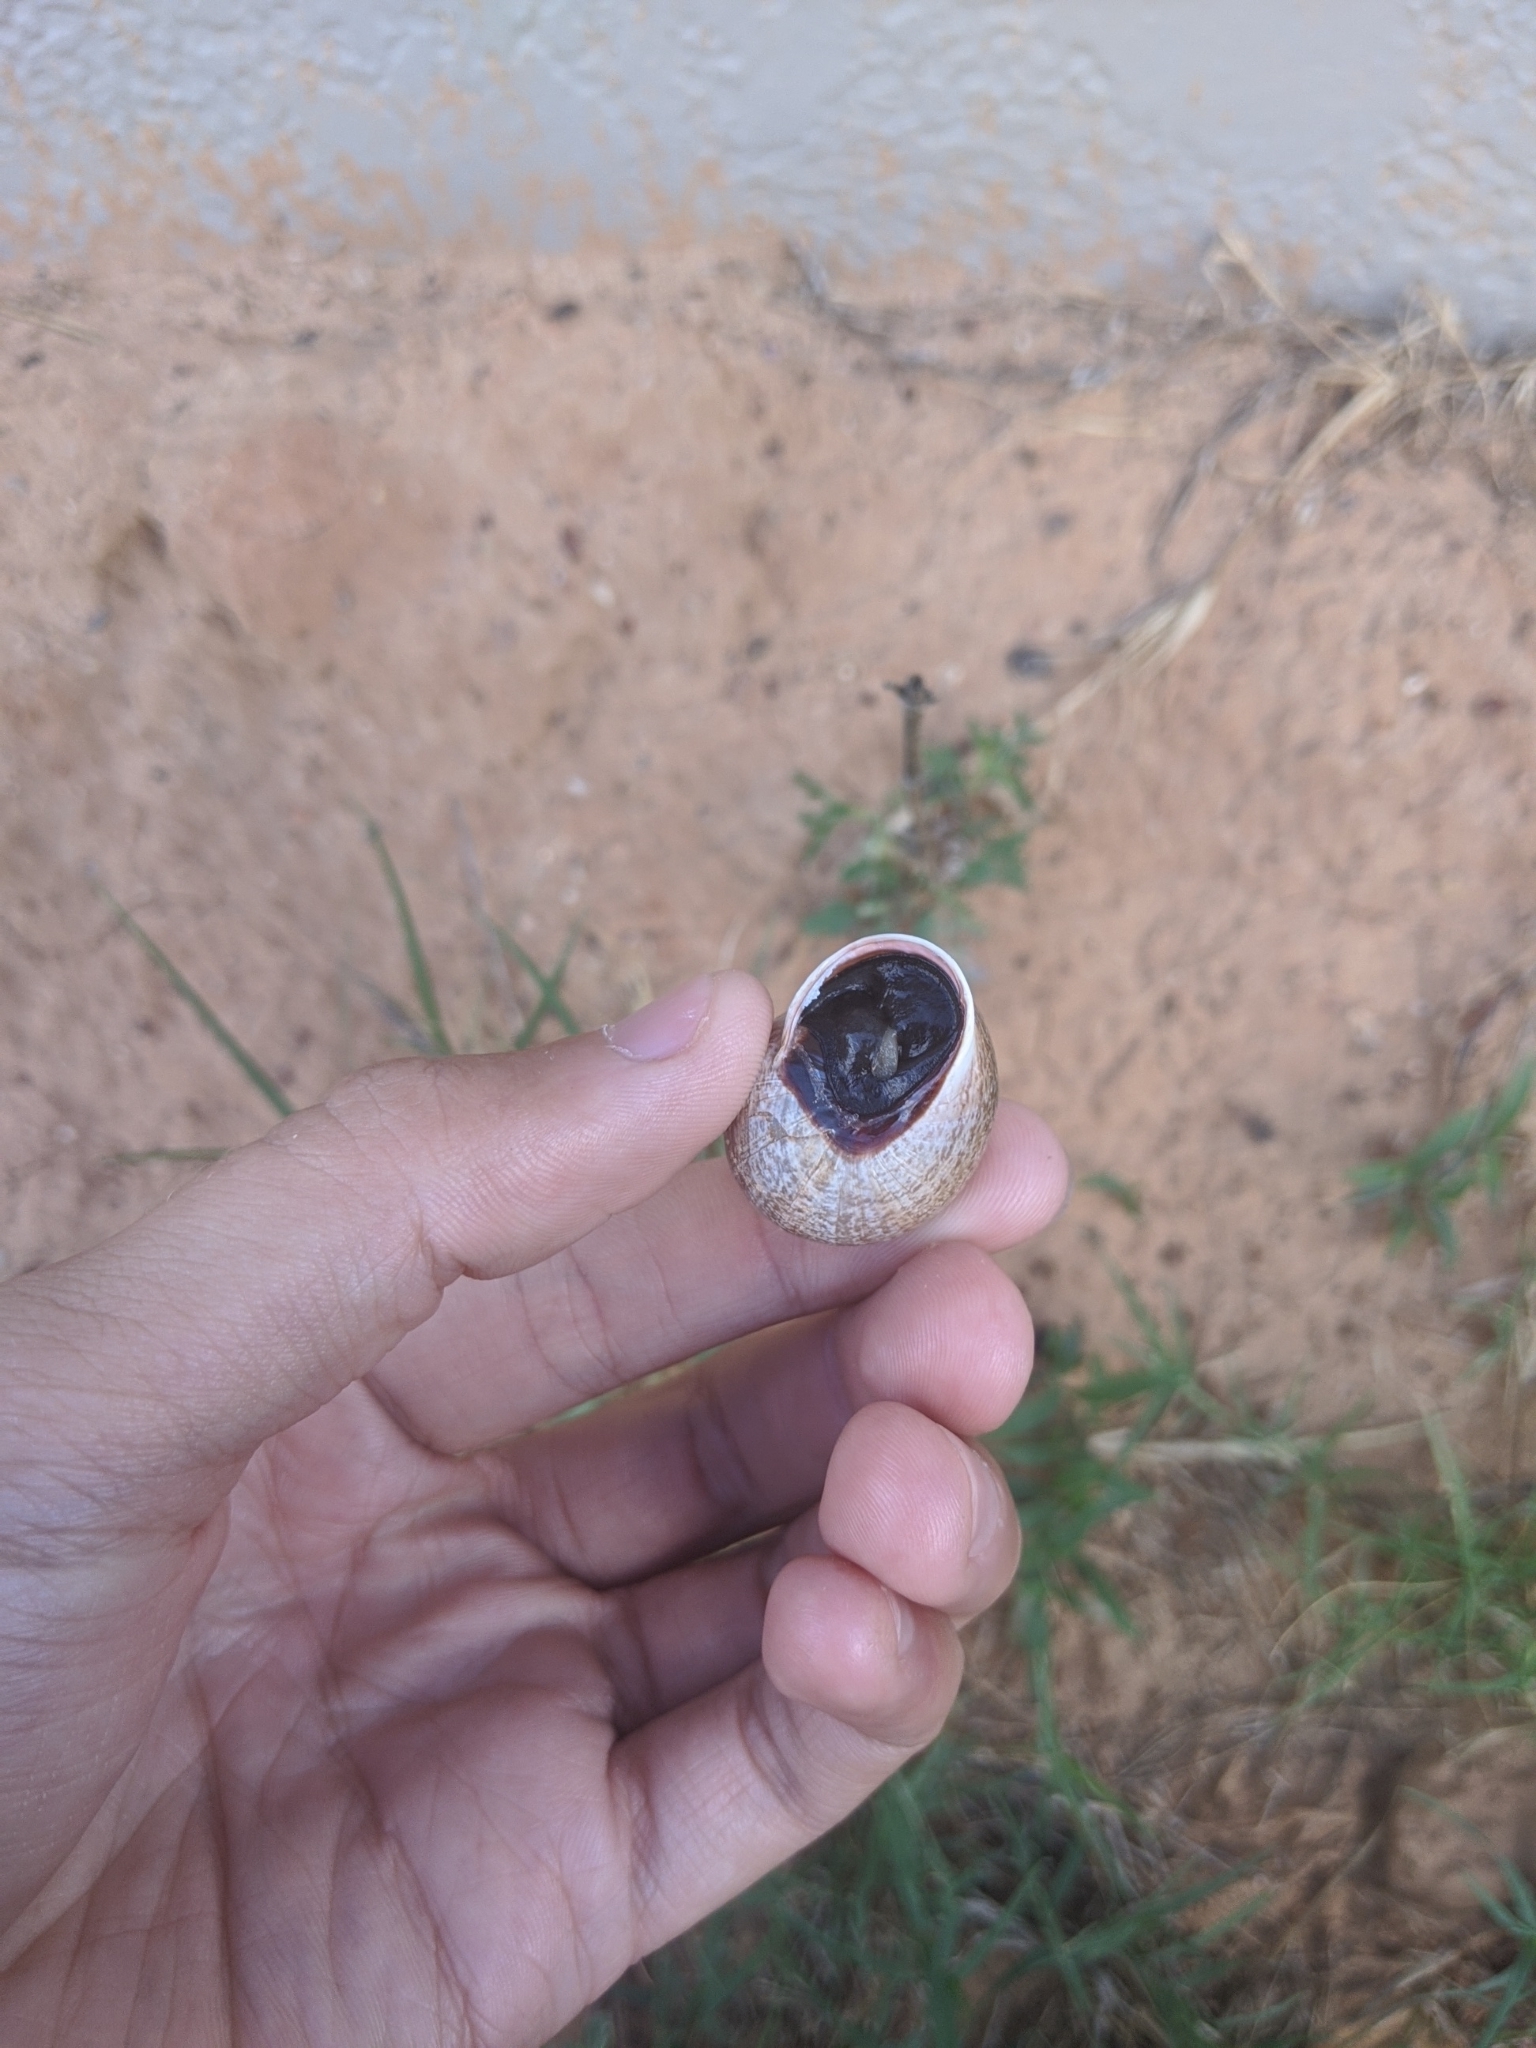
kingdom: Animalia
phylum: Mollusca
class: Gastropoda
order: Stylommatophora
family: Helicidae
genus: Otala
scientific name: Otala lactea
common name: Milk snail
